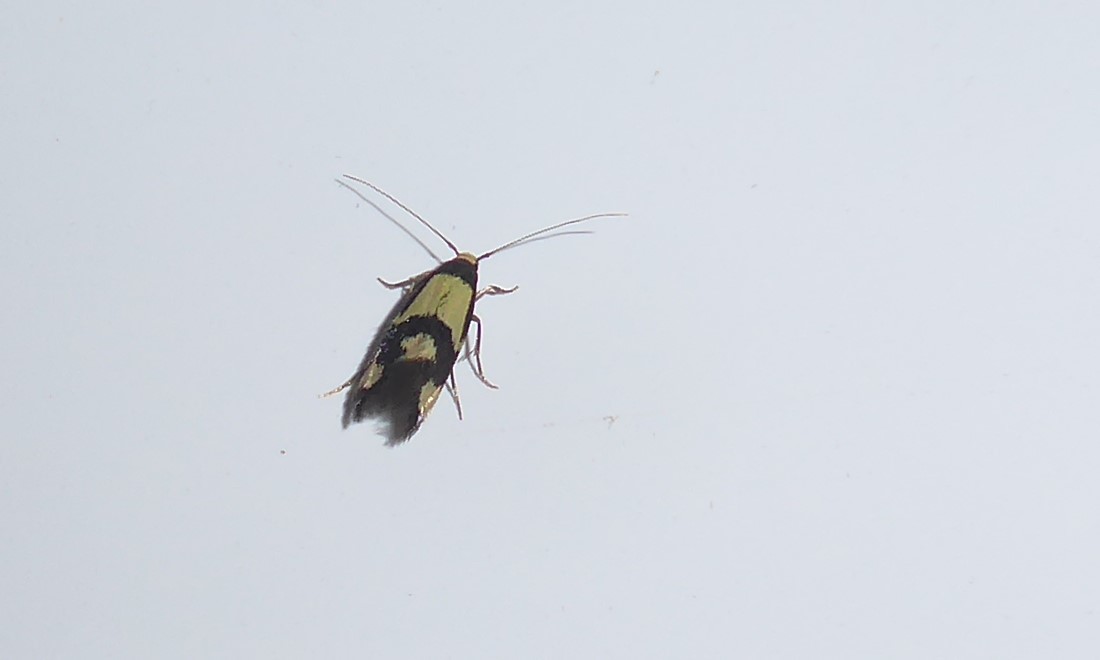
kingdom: Animalia
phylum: Arthropoda
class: Insecta
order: Lepidoptera
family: Tineidae
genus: Opogona
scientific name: Opogona comptella
